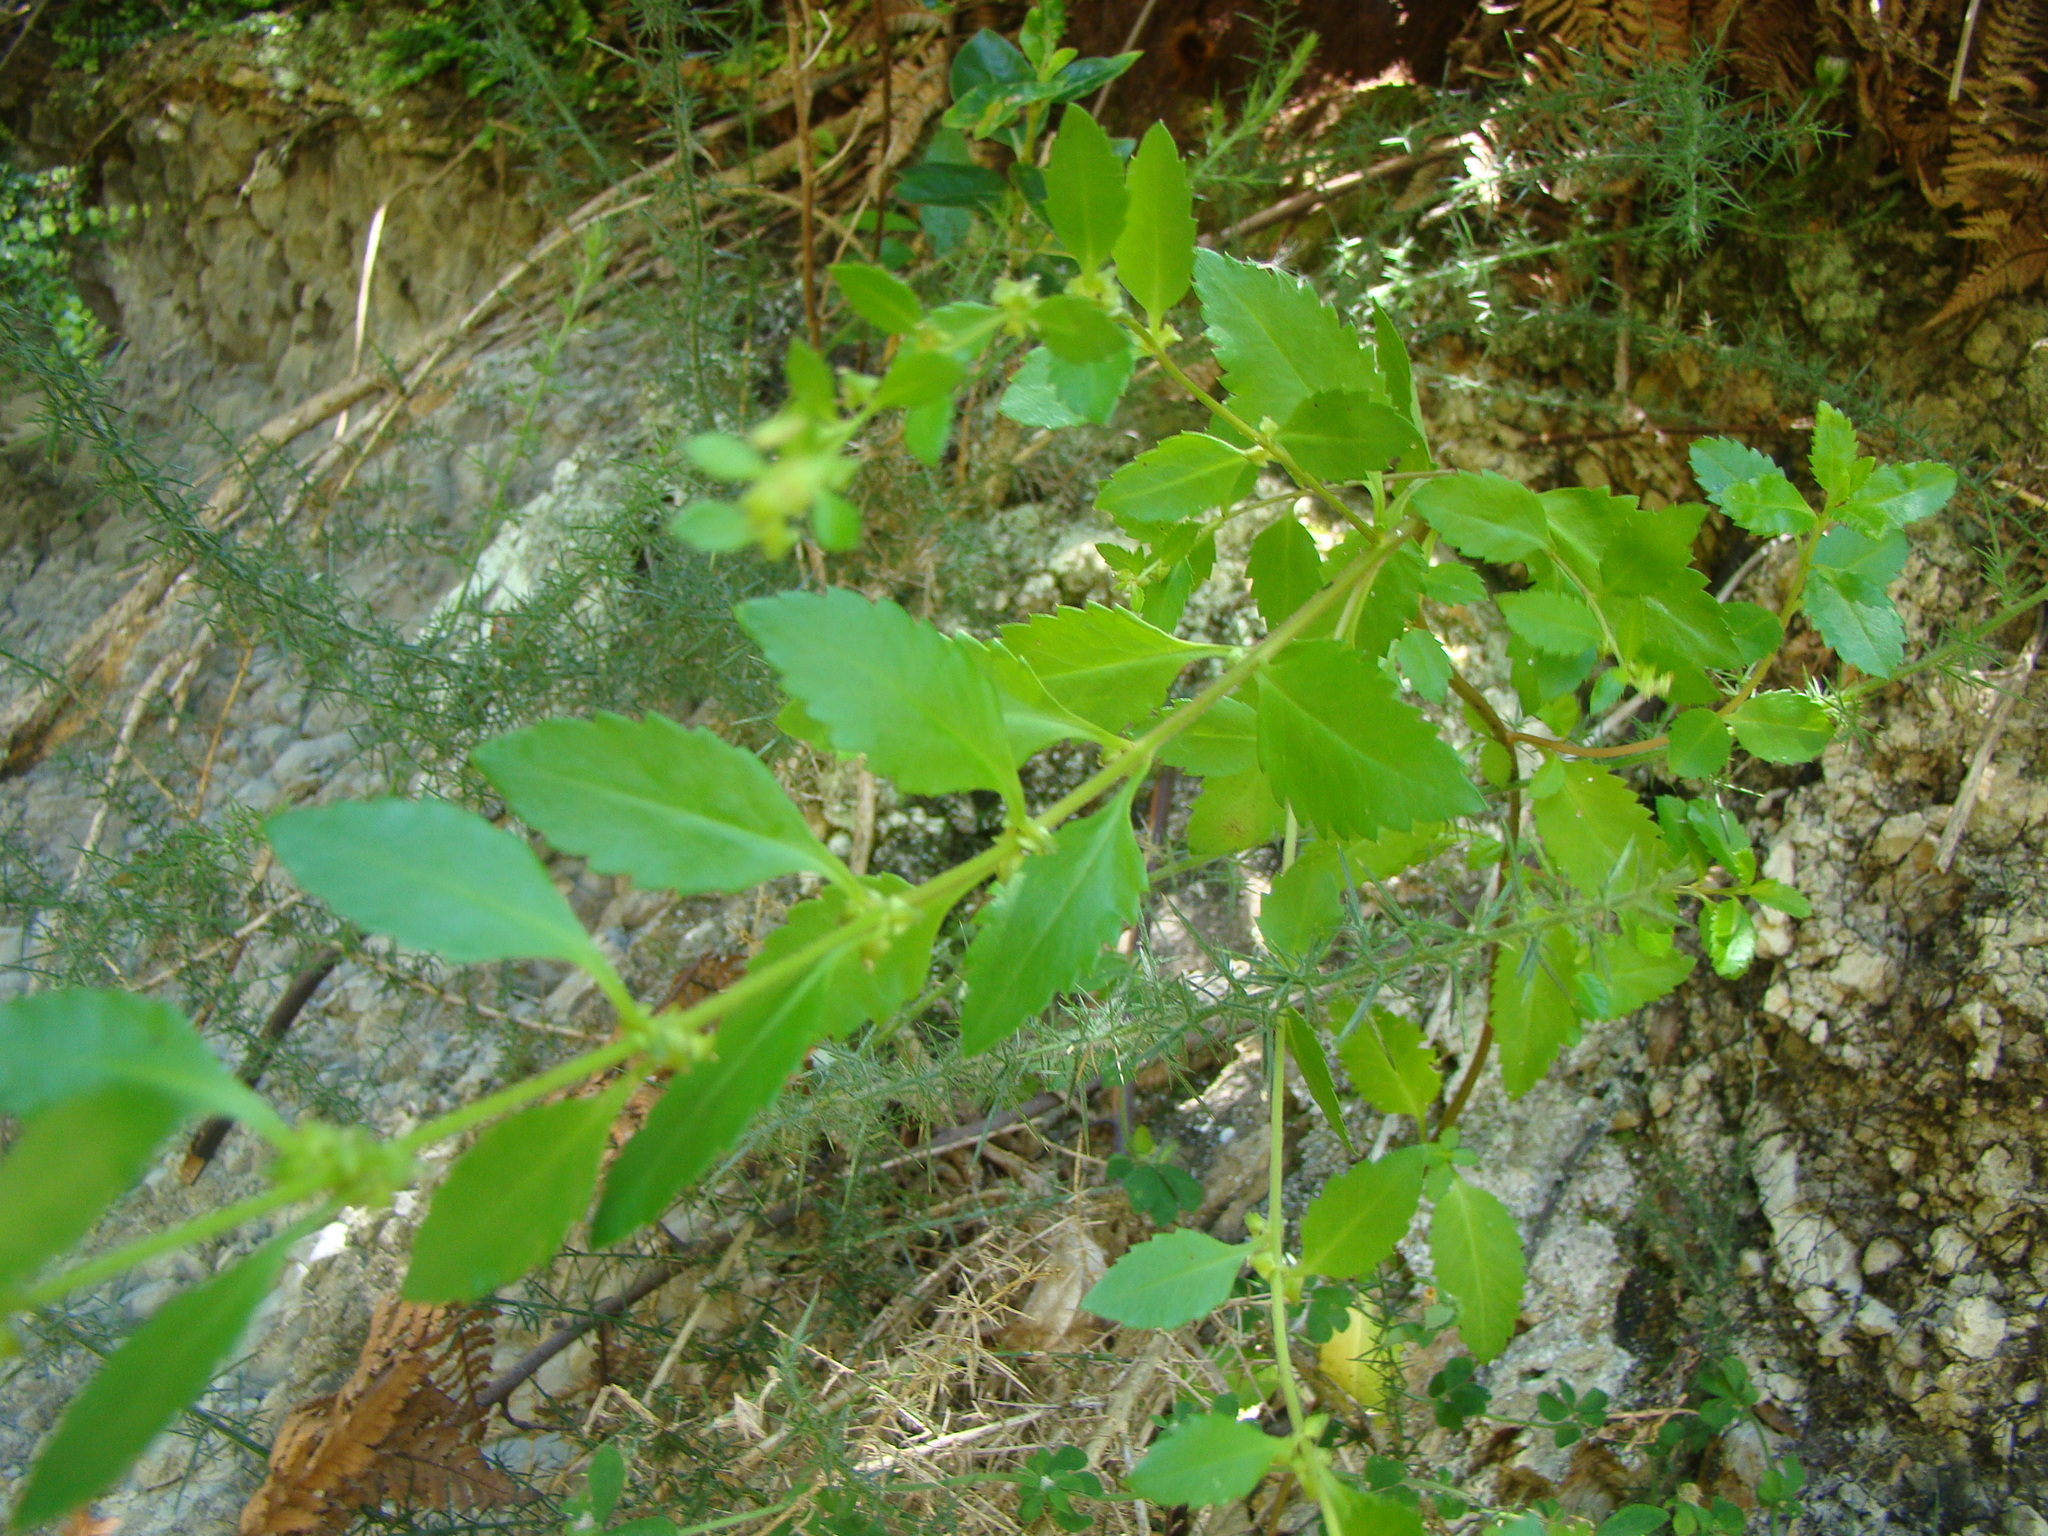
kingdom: Plantae
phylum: Tracheophyta
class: Magnoliopsida
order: Saxifragales
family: Haloragaceae
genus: Haloragis
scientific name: Haloragis erecta
